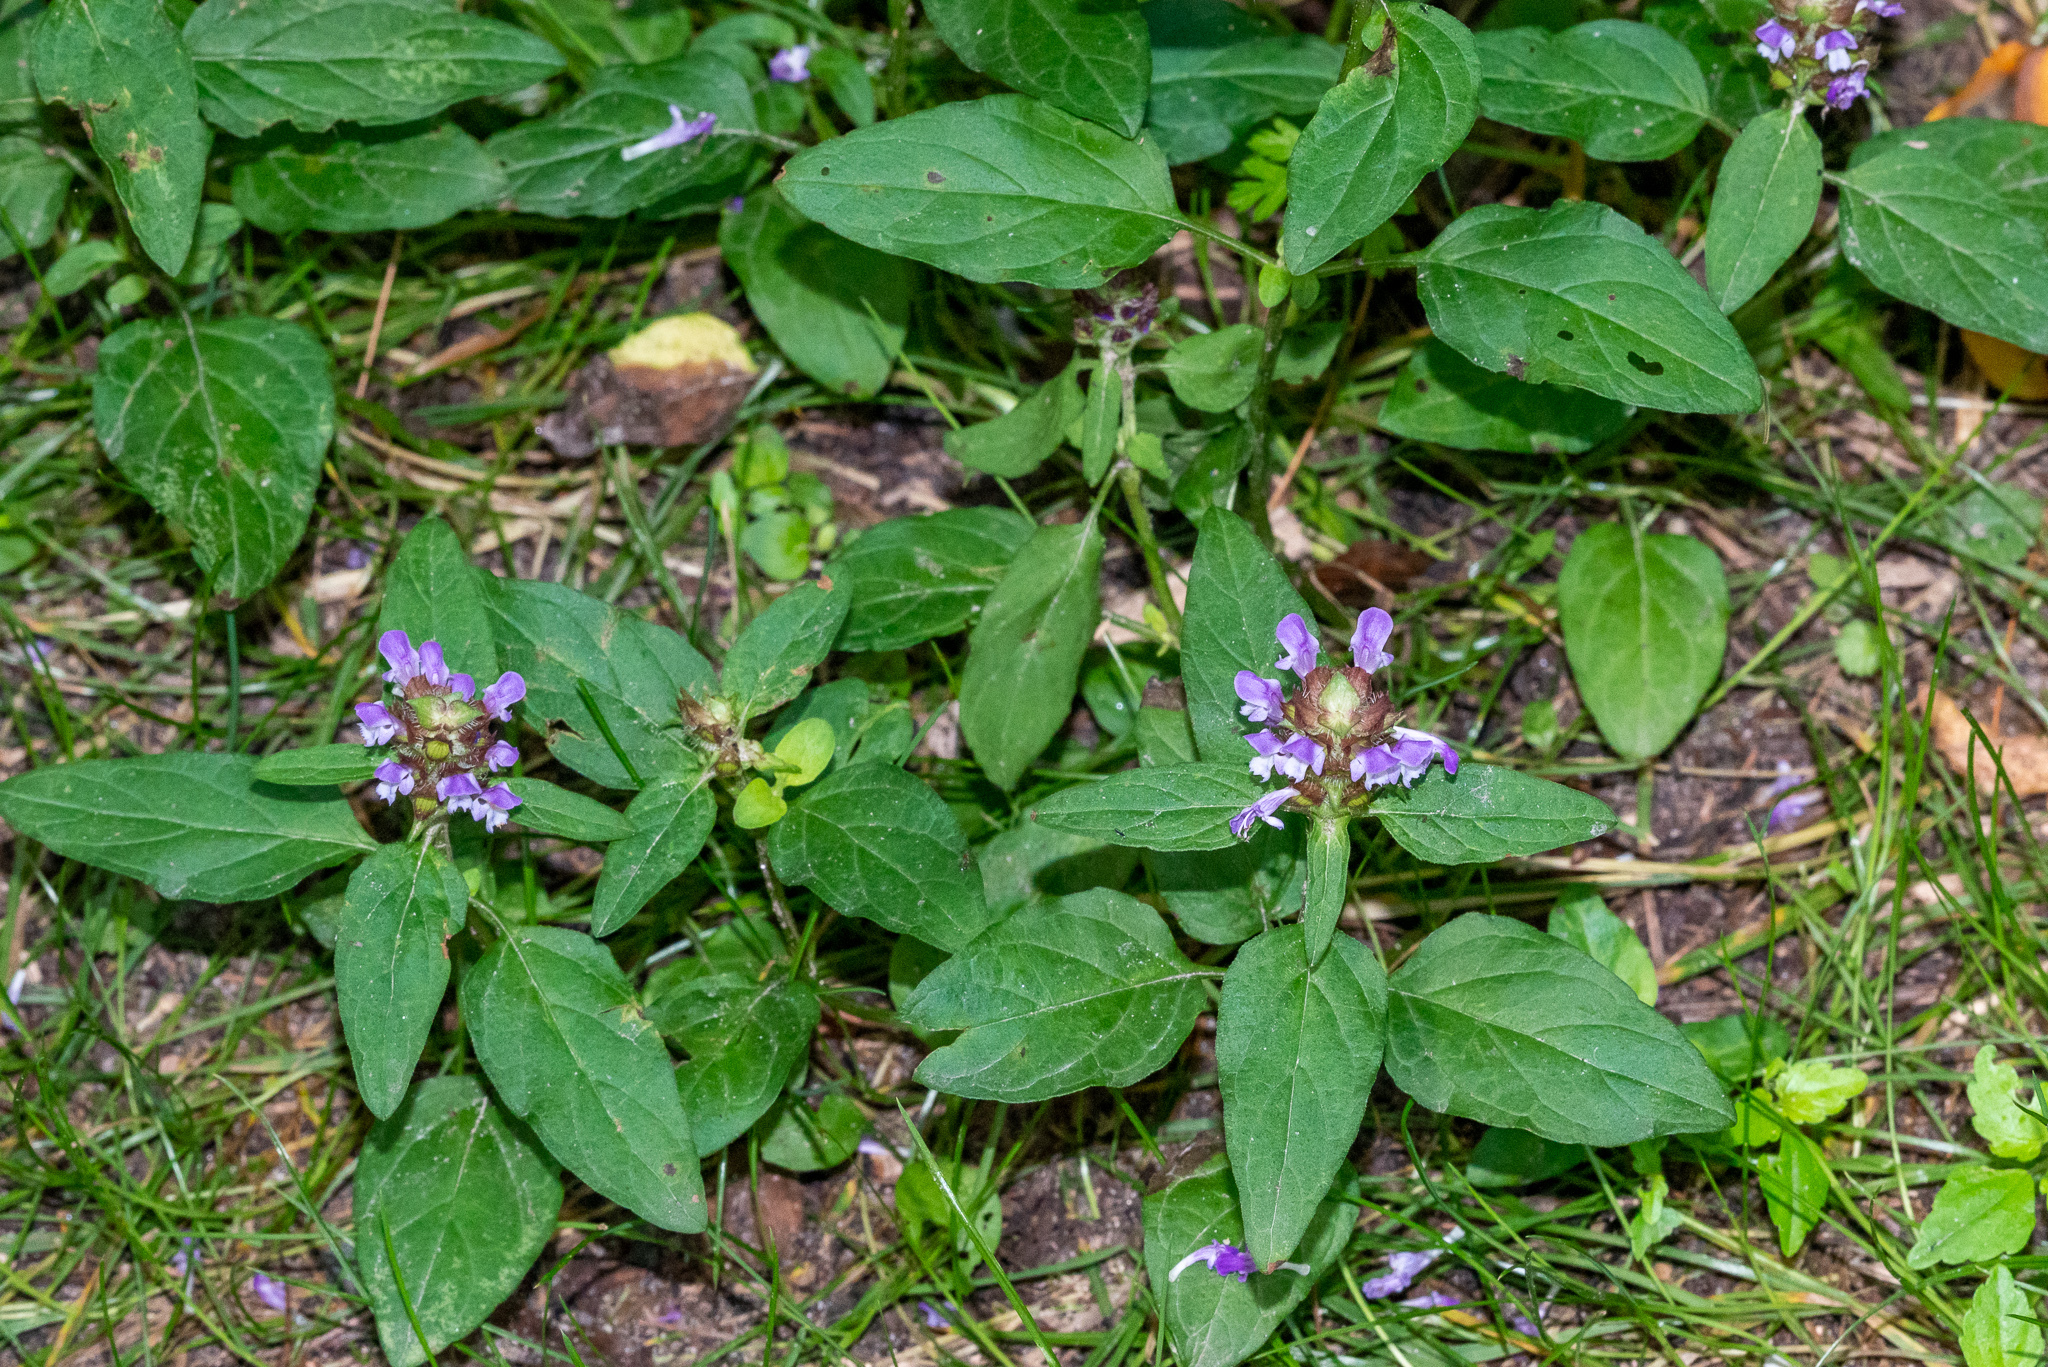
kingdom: Plantae
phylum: Tracheophyta
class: Magnoliopsida
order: Lamiales
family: Lamiaceae
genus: Prunella
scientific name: Prunella vulgaris
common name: Heal-all
